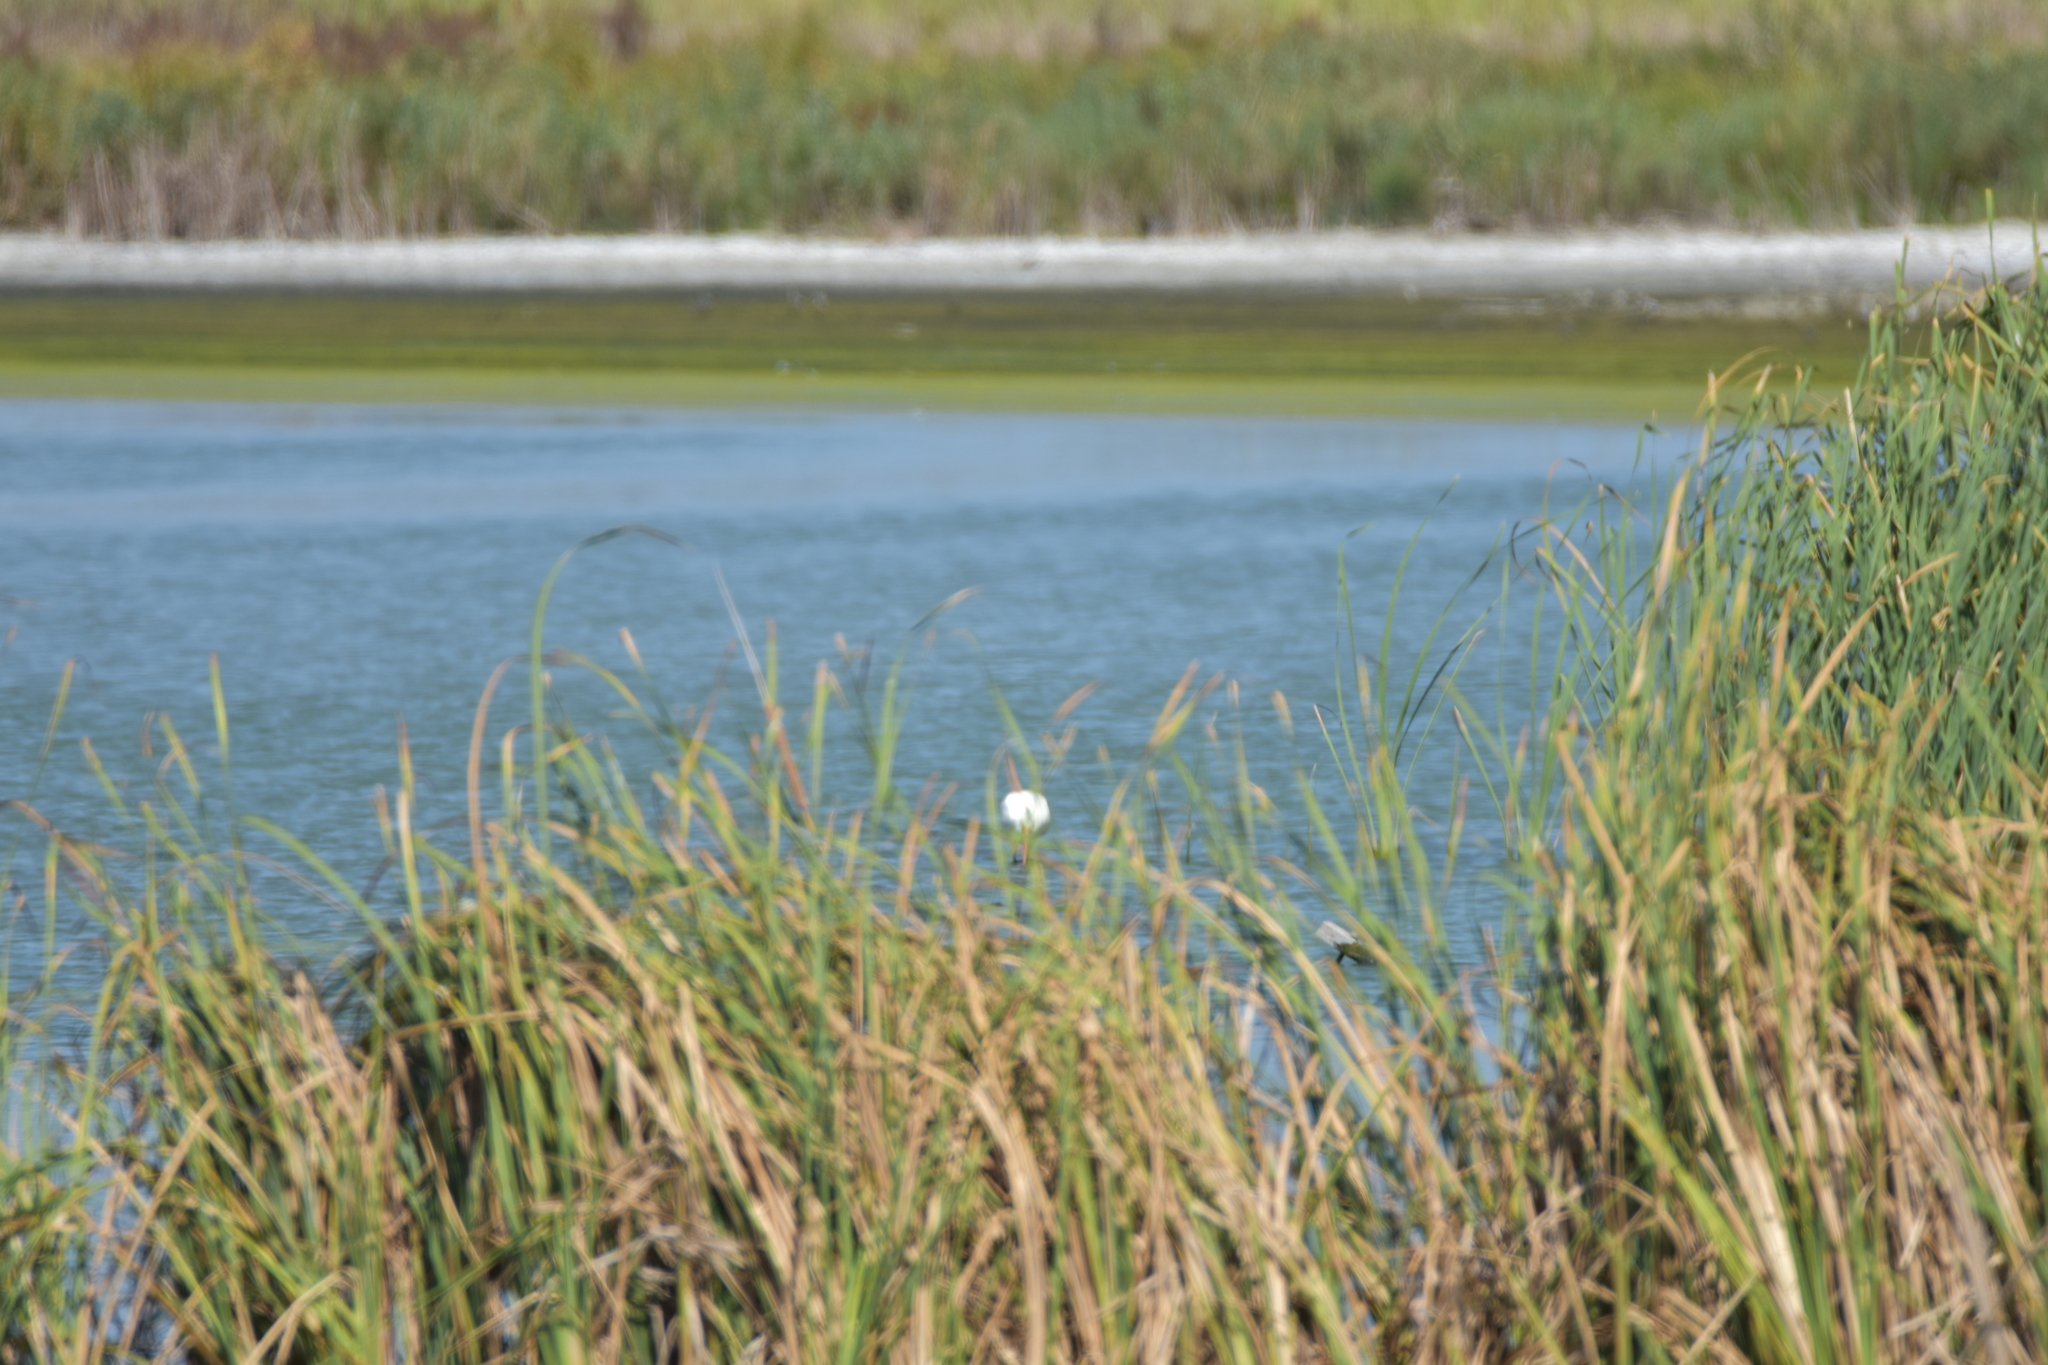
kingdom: Animalia
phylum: Chordata
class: Aves
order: Pelecaniformes
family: Threskiornithidae
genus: Eudocimus
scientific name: Eudocimus albus
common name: White ibis
